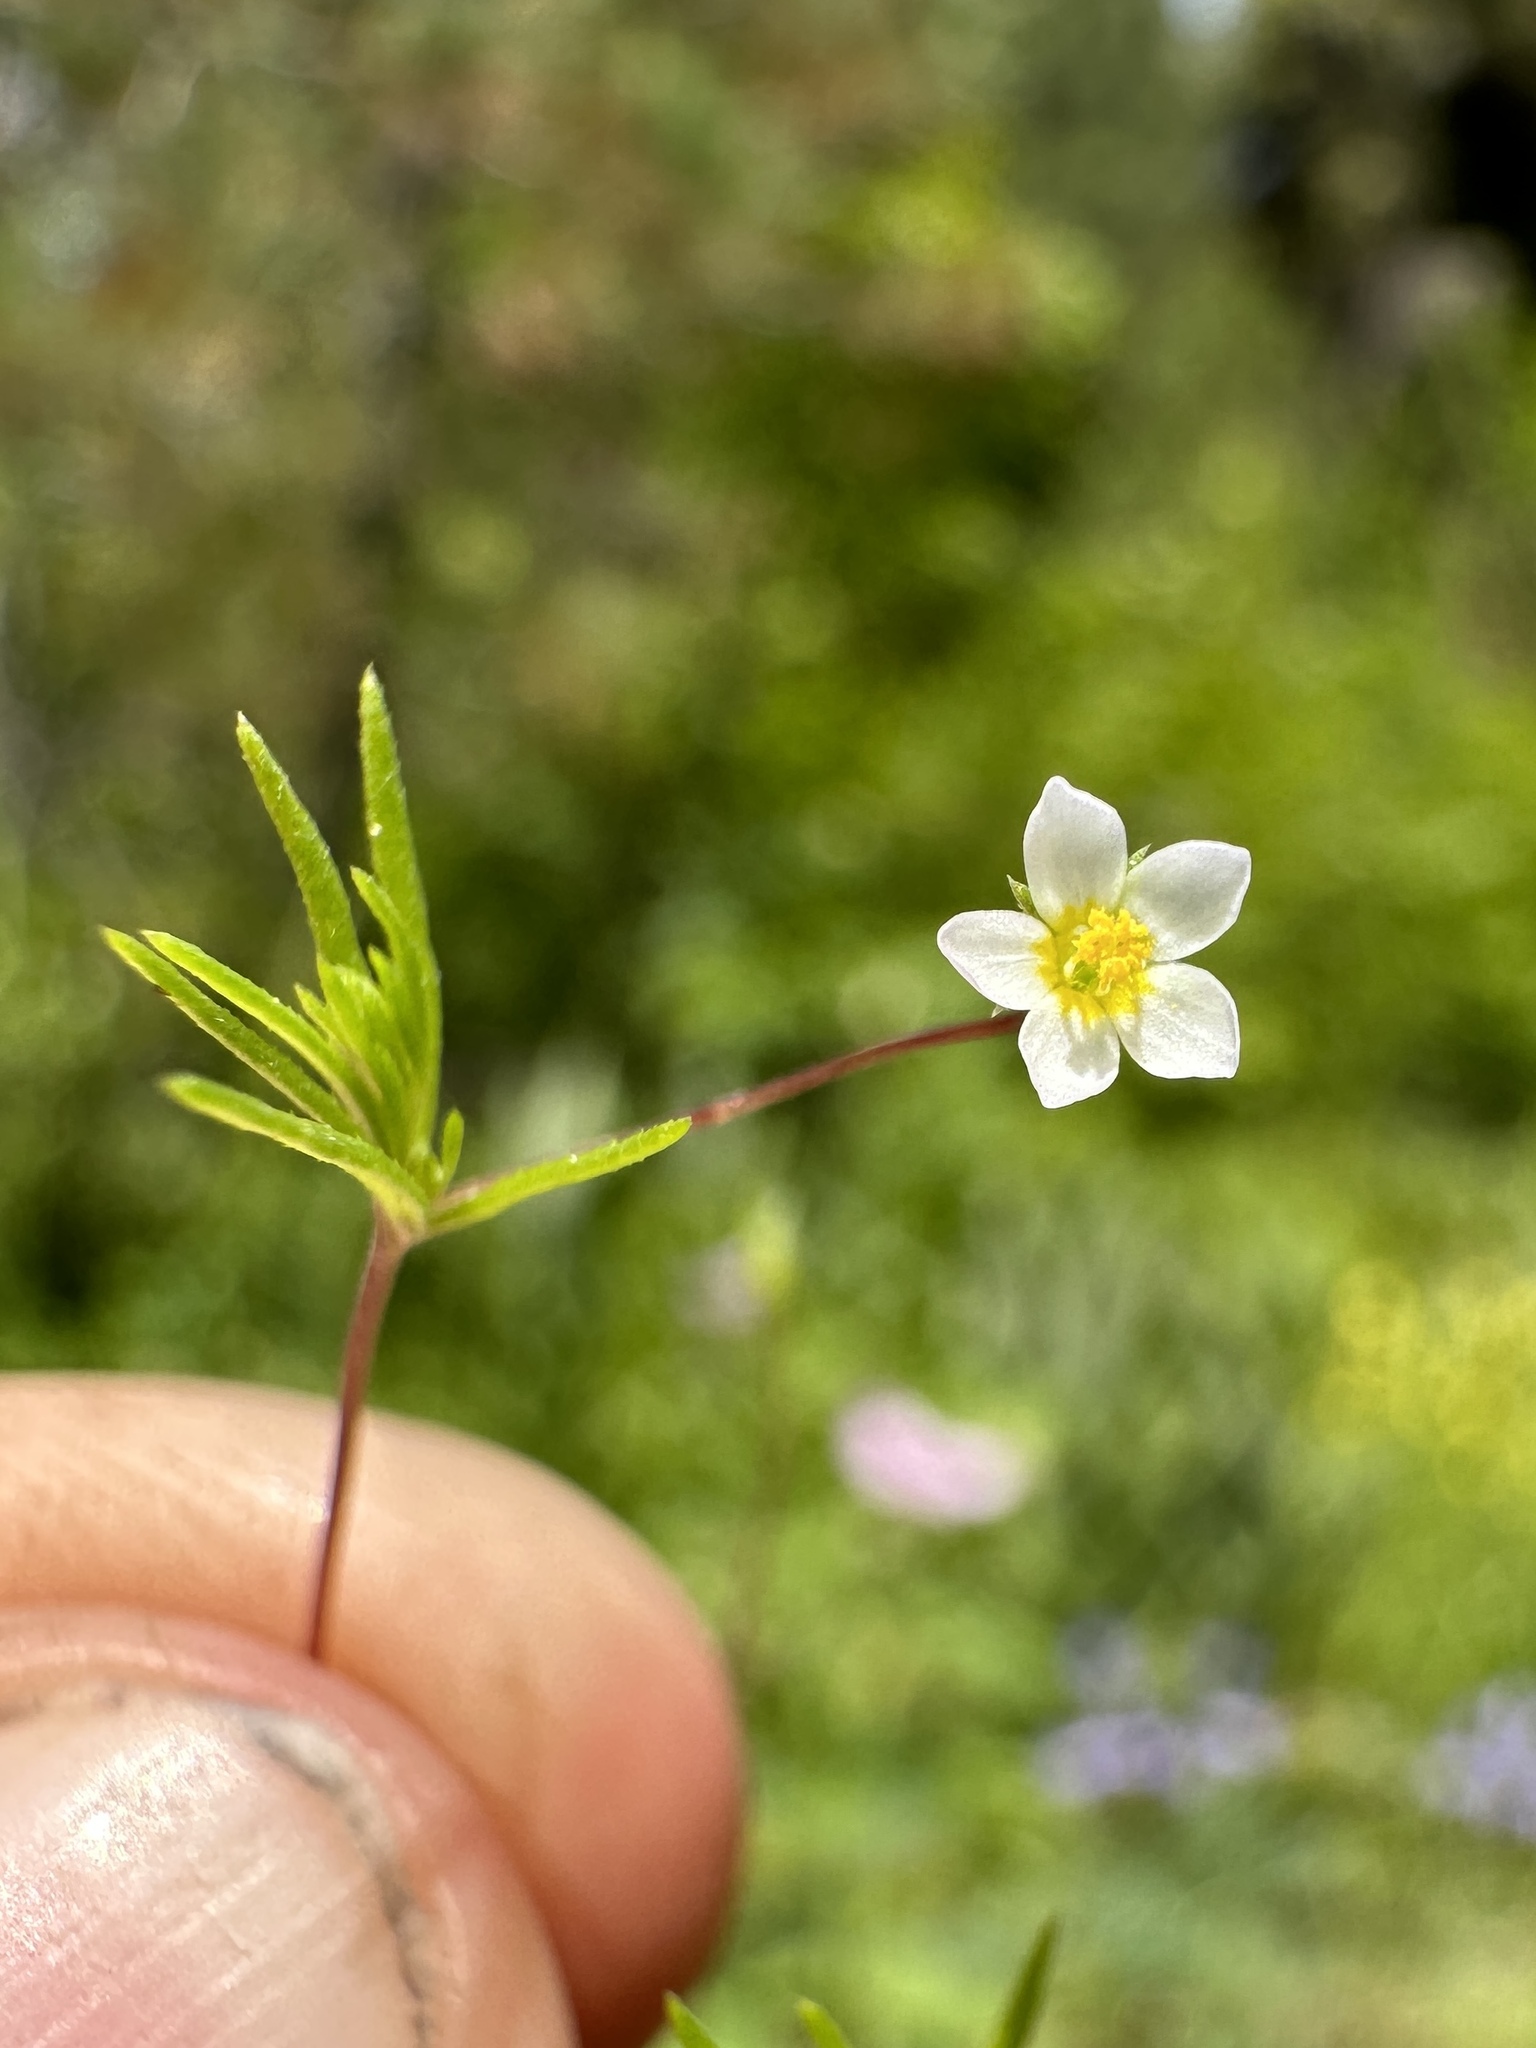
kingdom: Plantae
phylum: Tracheophyta
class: Magnoliopsida
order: Ericales
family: Polemoniaceae
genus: Leptosiphon
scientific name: Leptosiphon septentrionalis
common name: Northern linanthus
